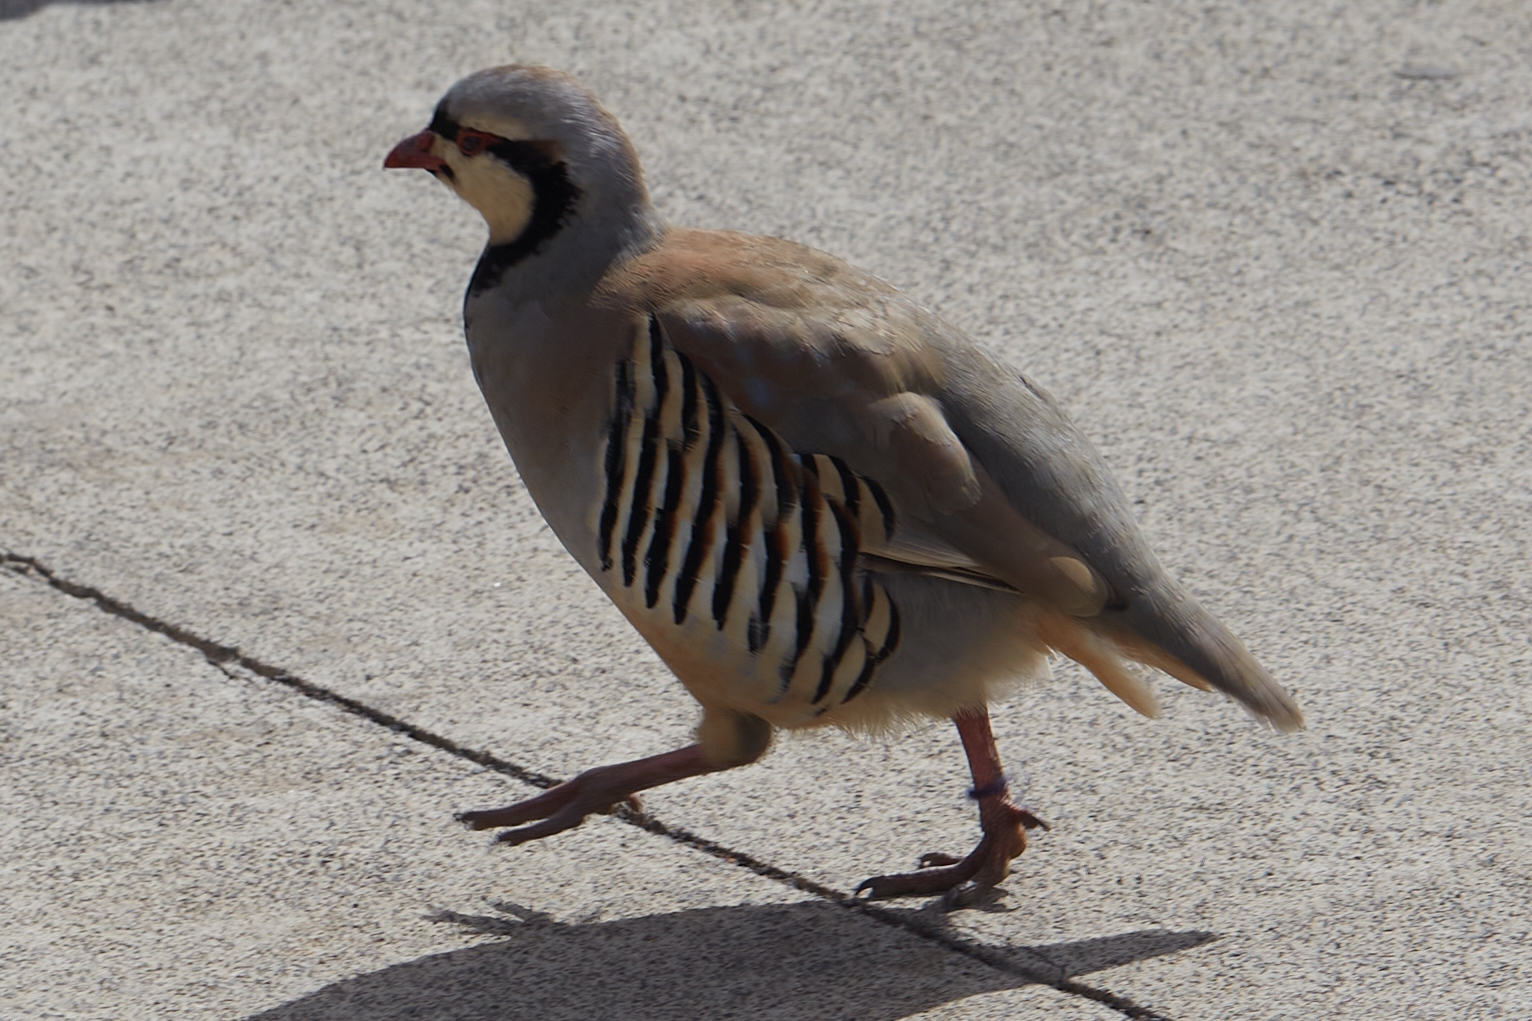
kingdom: Animalia
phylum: Chordata
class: Aves
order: Galliformes
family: Phasianidae
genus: Alectoris
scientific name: Alectoris chukar
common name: Chukar
